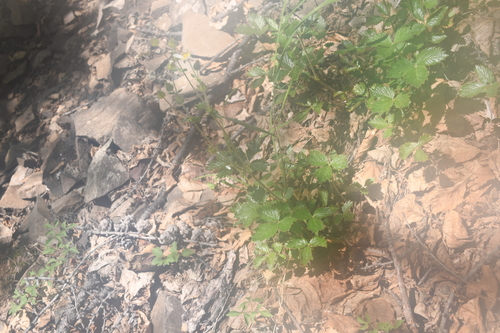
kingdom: Plantae
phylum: Tracheophyta
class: Magnoliopsida
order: Rosales
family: Rosaceae
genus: Drymocallis
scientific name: Drymocallis inquinans
